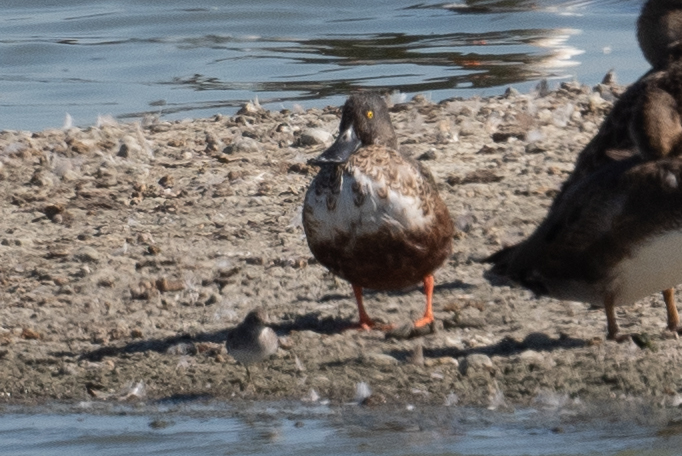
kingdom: Animalia
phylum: Chordata
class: Aves
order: Anseriformes
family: Anatidae
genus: Spatula
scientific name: Spatula clypeata
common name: Northern shoveler
